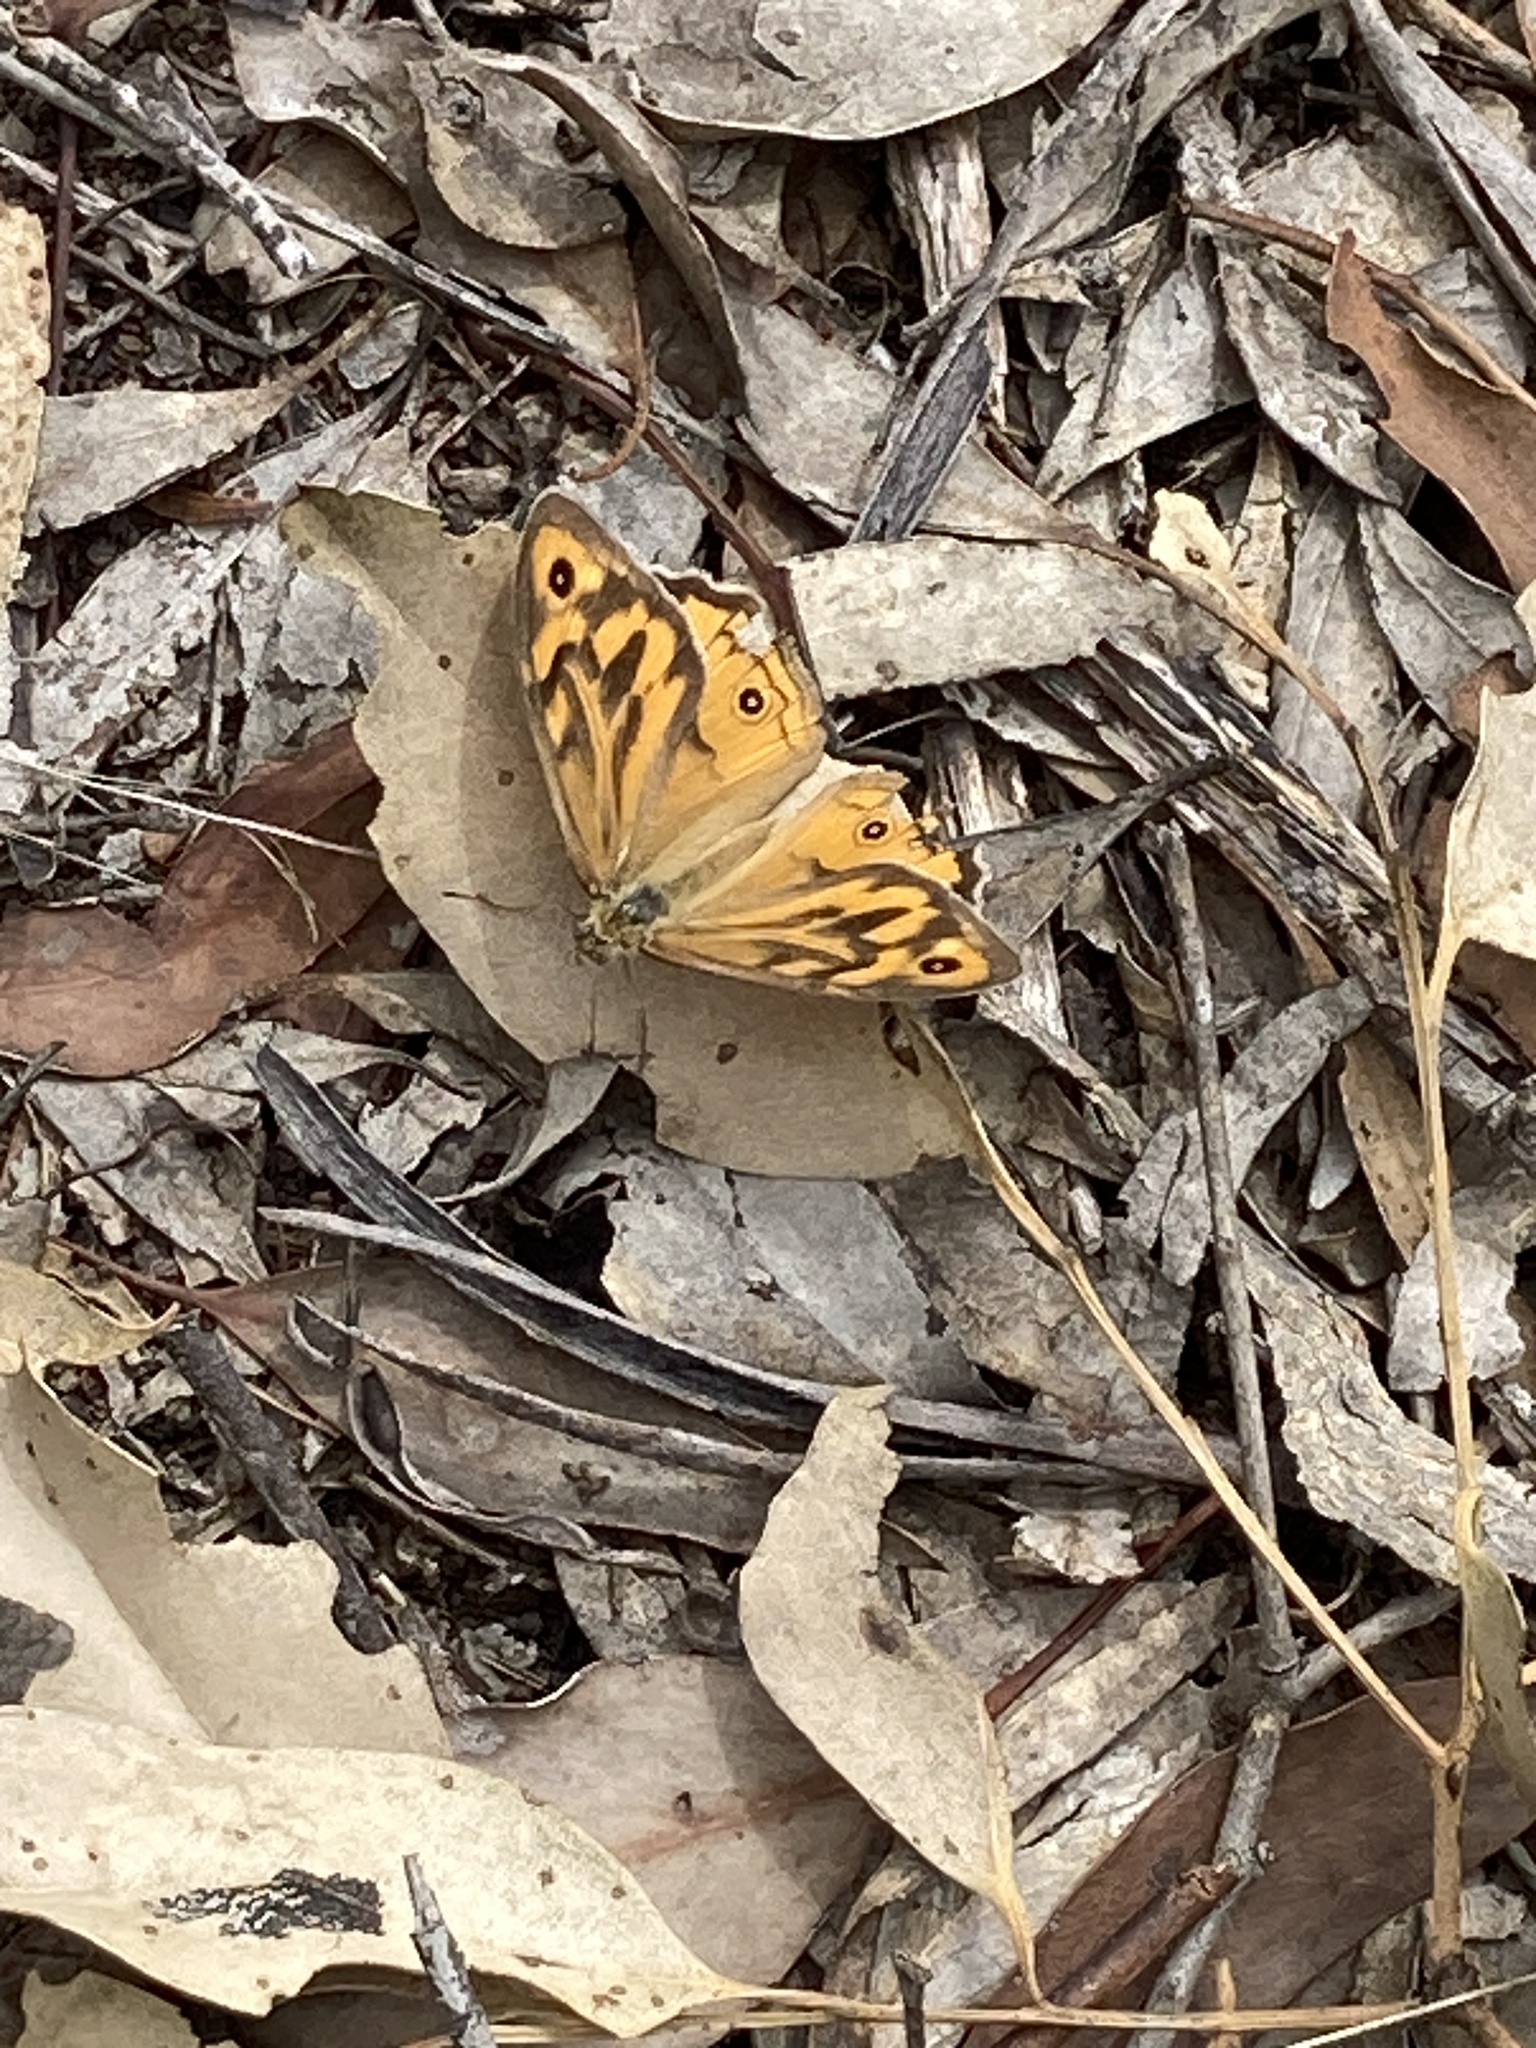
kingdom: Animalia
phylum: Arthropoda
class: Insecta
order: Lepidoptera
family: Nymphalidae
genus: Heteronympha
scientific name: Heteronympha merope
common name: Common brown
